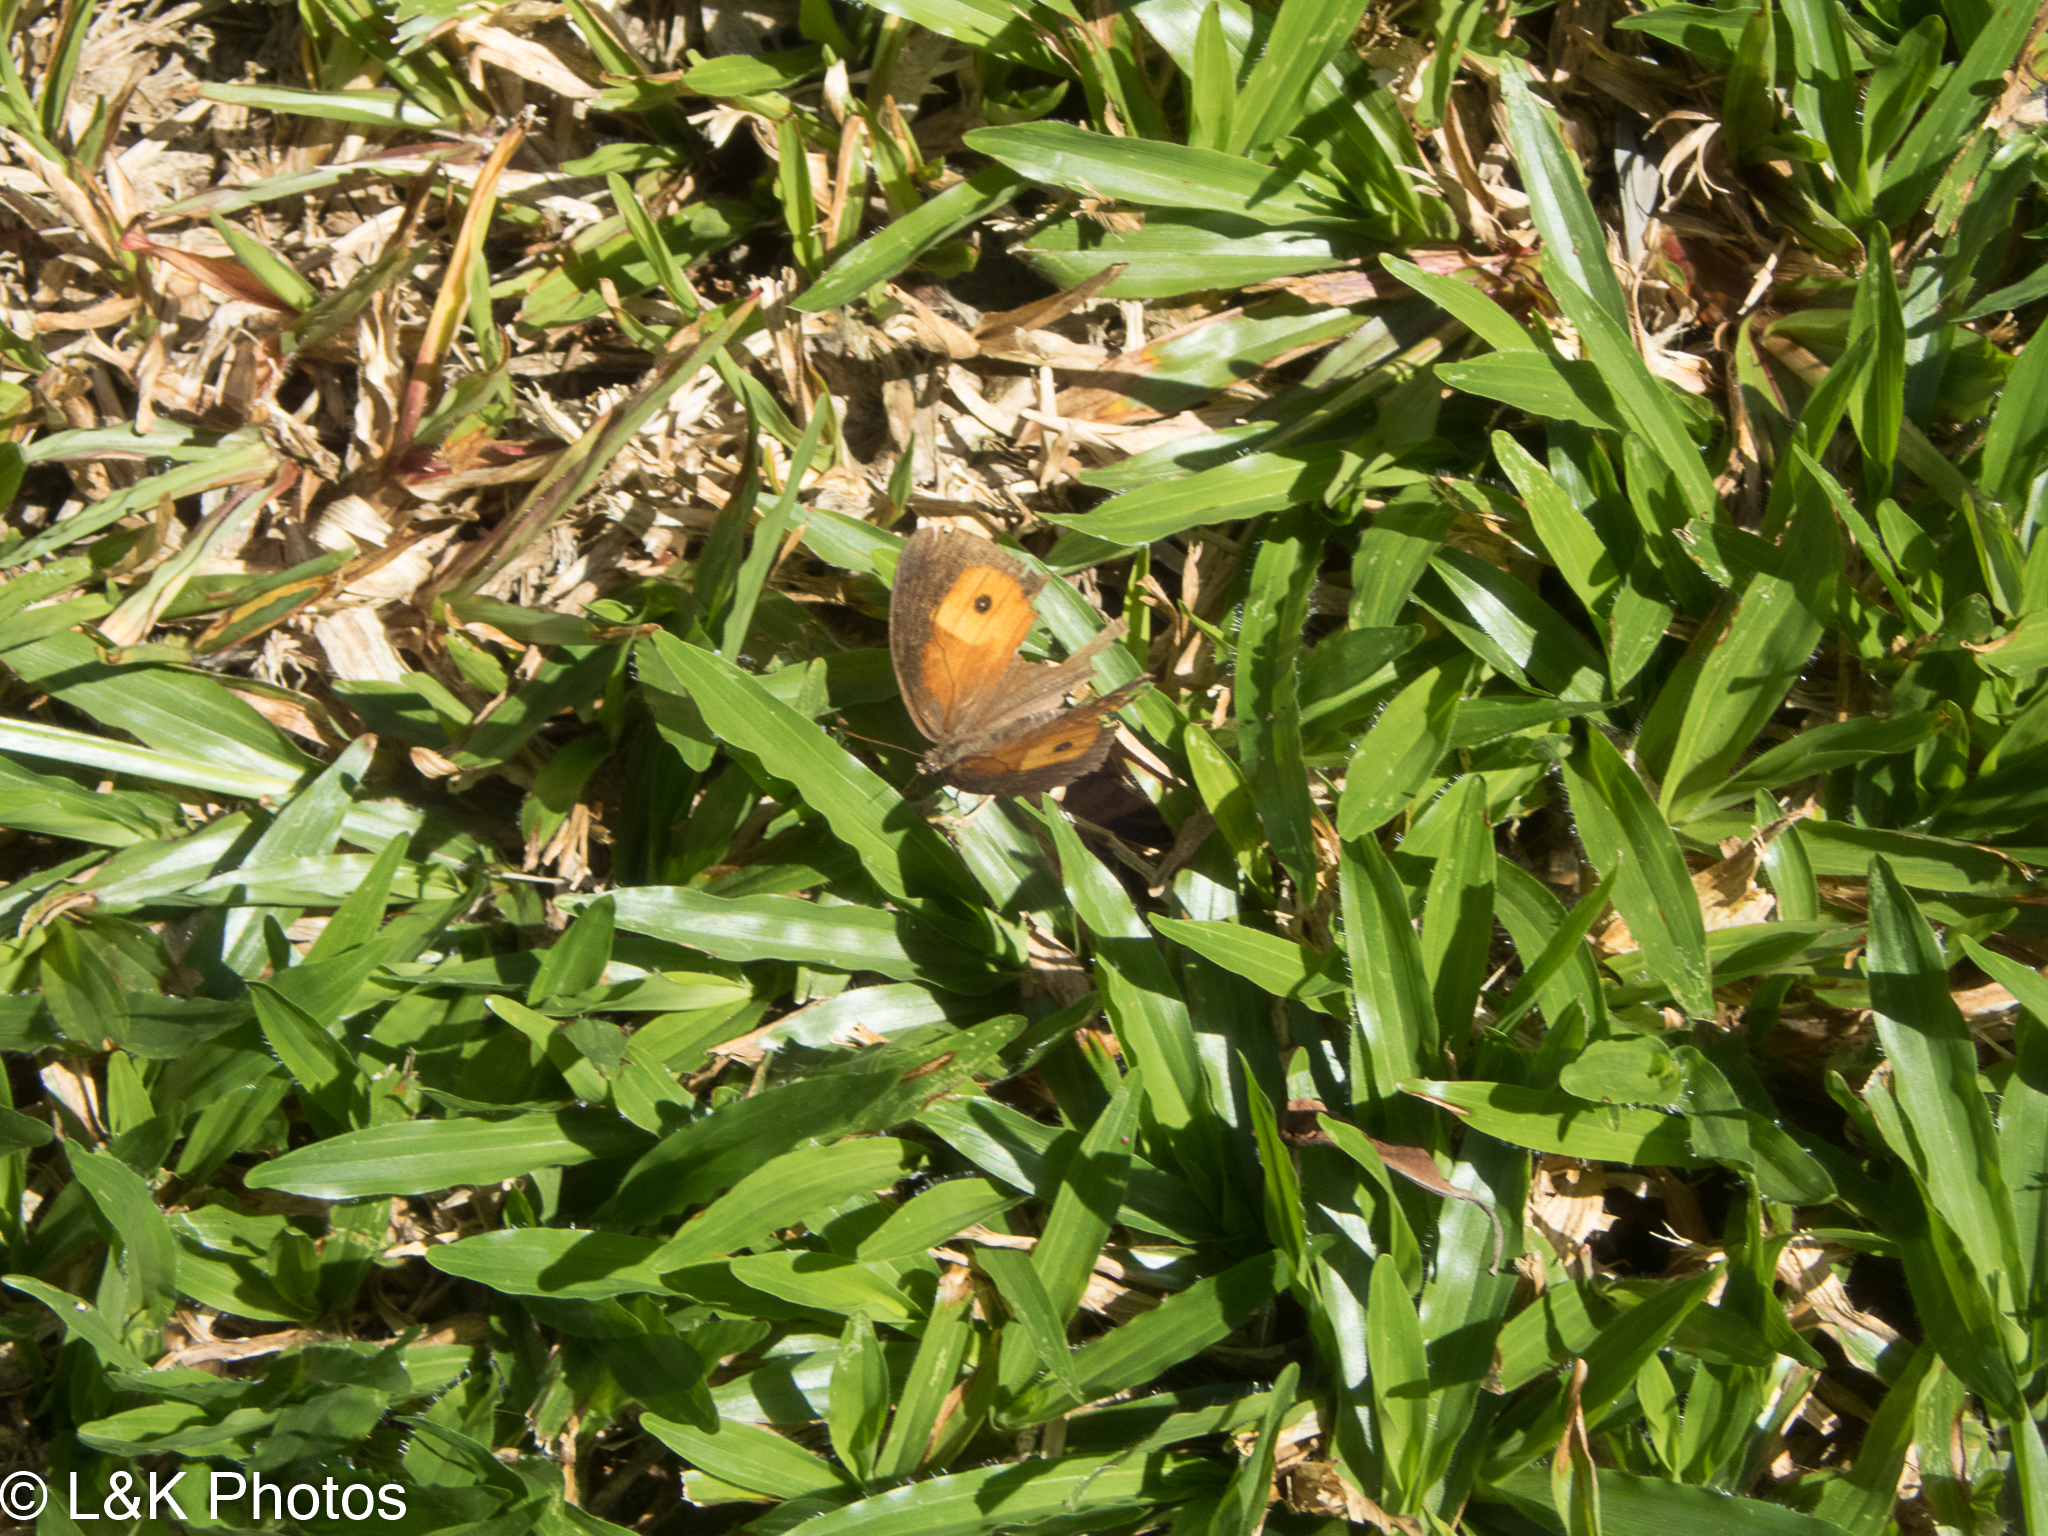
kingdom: Animalia
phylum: Arthropoda
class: Insecta
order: Lepidoptera
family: Nymphalidae
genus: Mycalesis
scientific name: Mycalesis terminus
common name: Orange bushbrown
